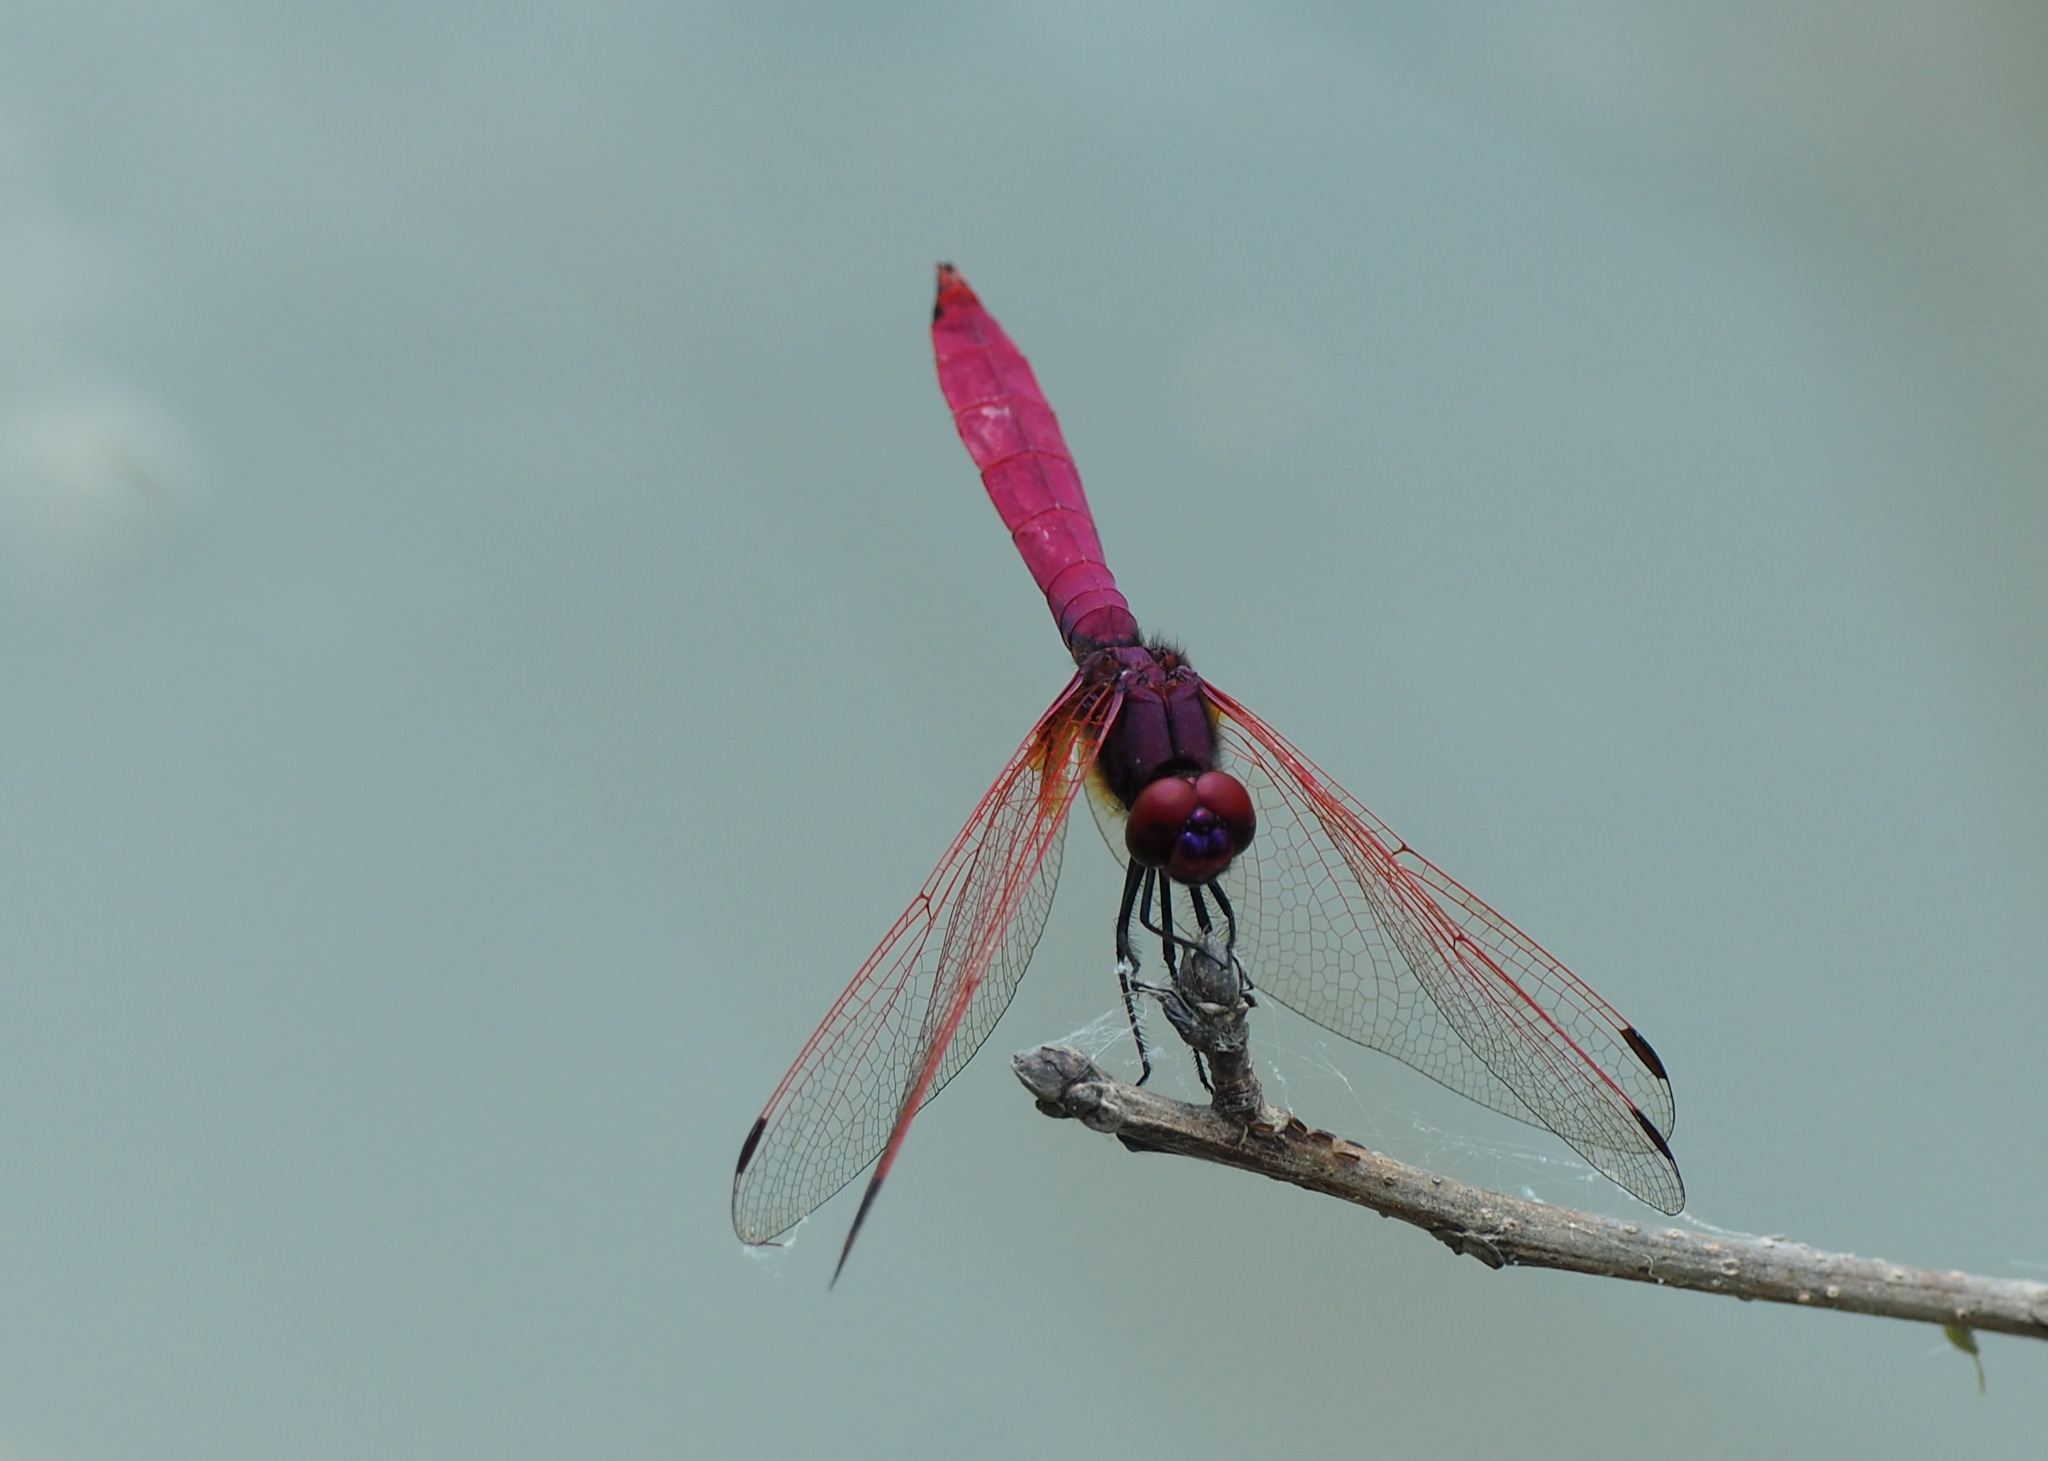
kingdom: Animalia
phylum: Arthropoda
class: Insecta
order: Odonata
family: Libellulidae
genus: Trithemis
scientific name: Trithemis aurora
